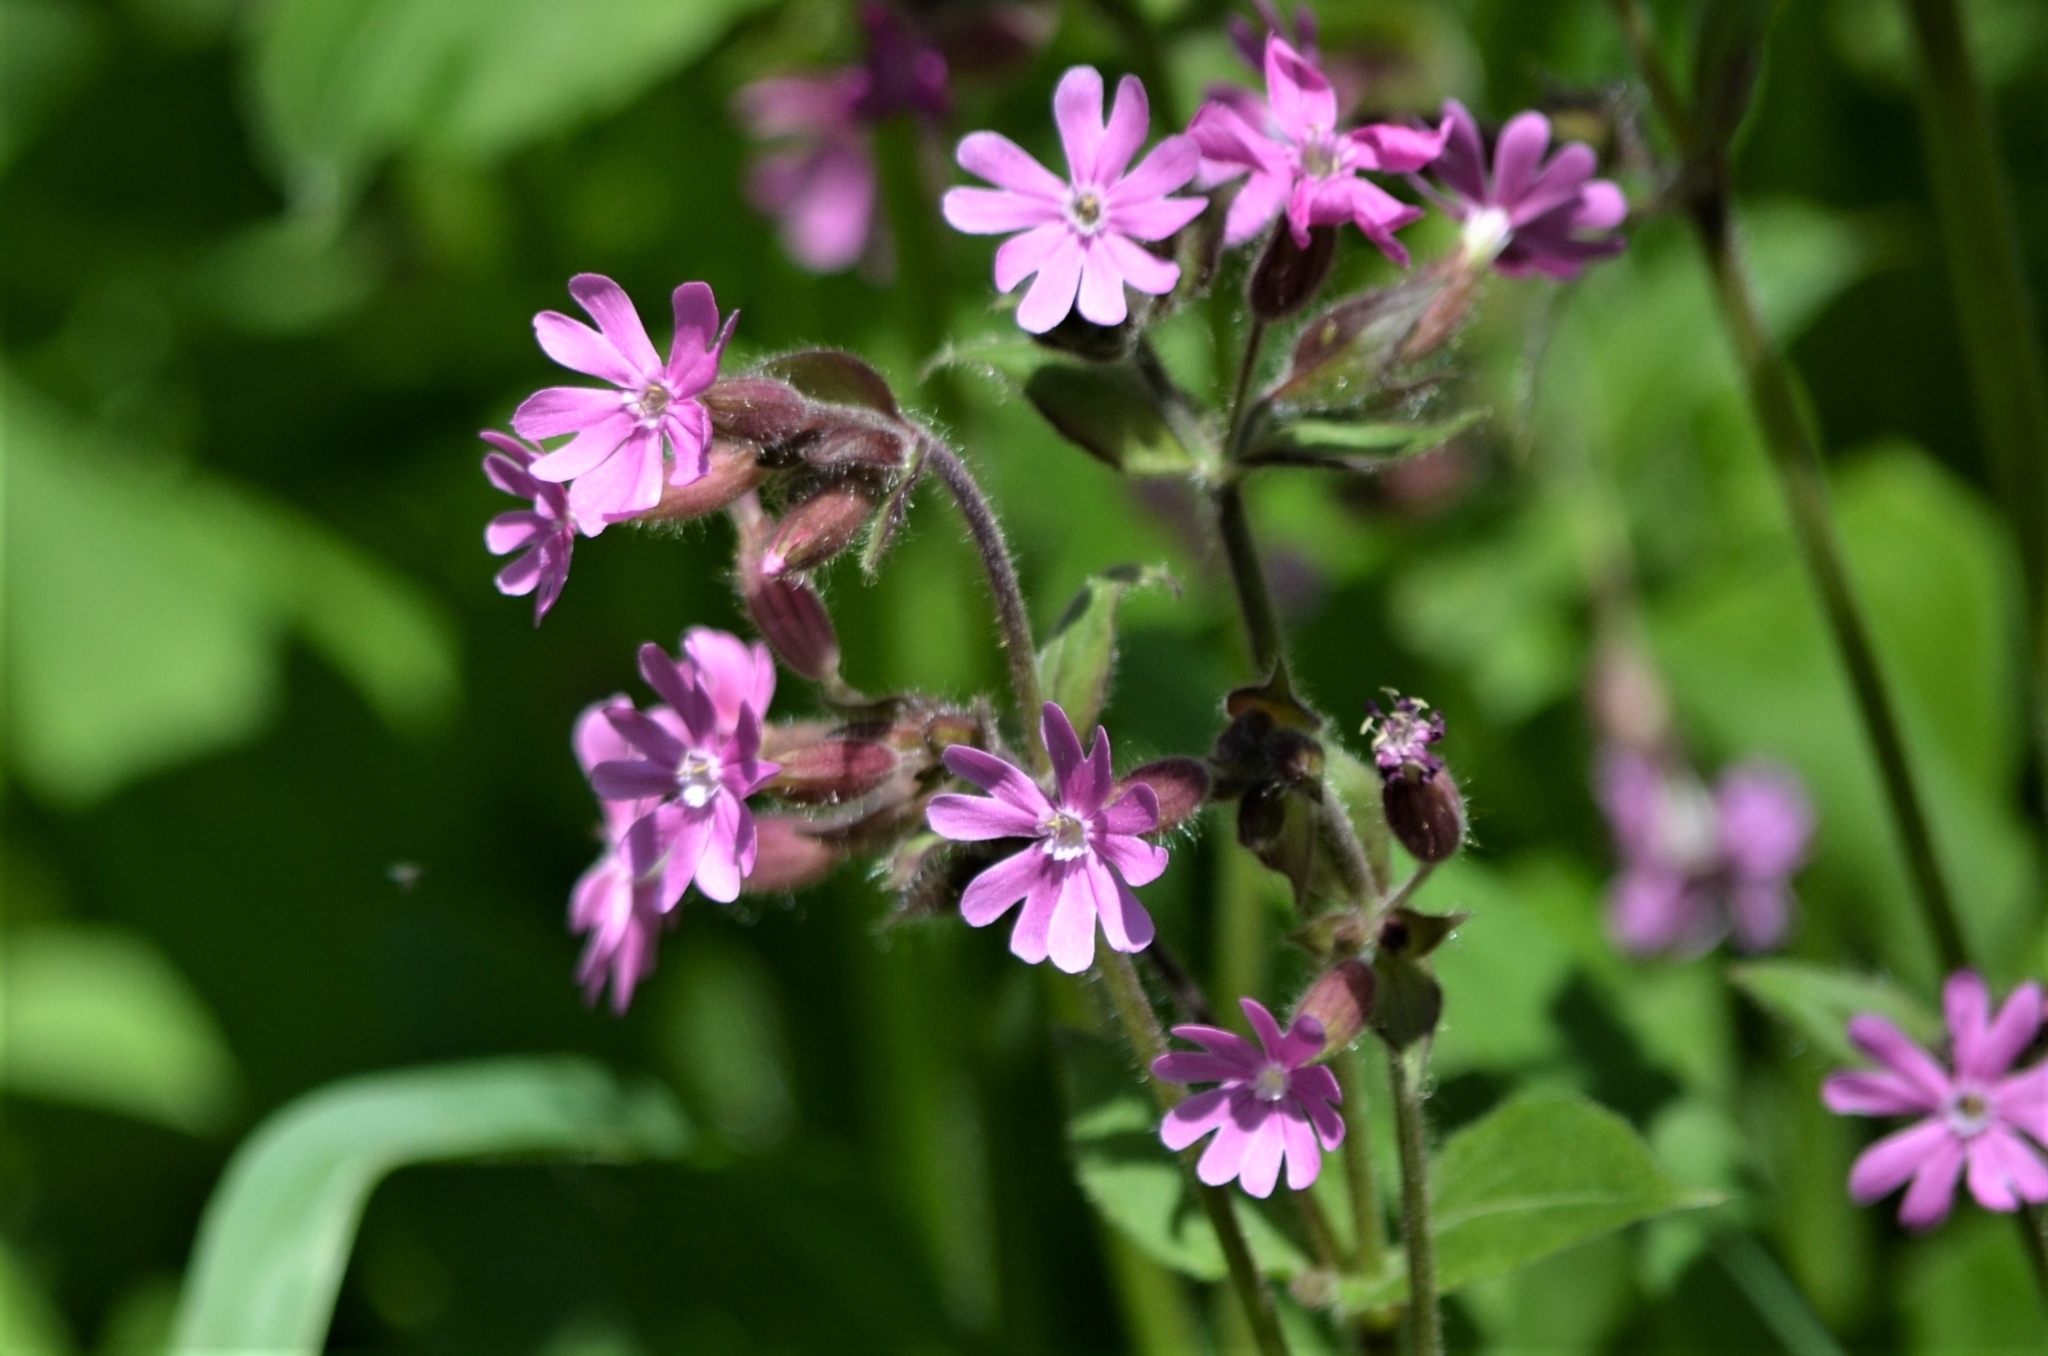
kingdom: Plantae
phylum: Tracheophyta
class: Magnoliopsida
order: Caryophyllales
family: Caryophyllaceae
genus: Silene
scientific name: Silene dioica
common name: Red campion
